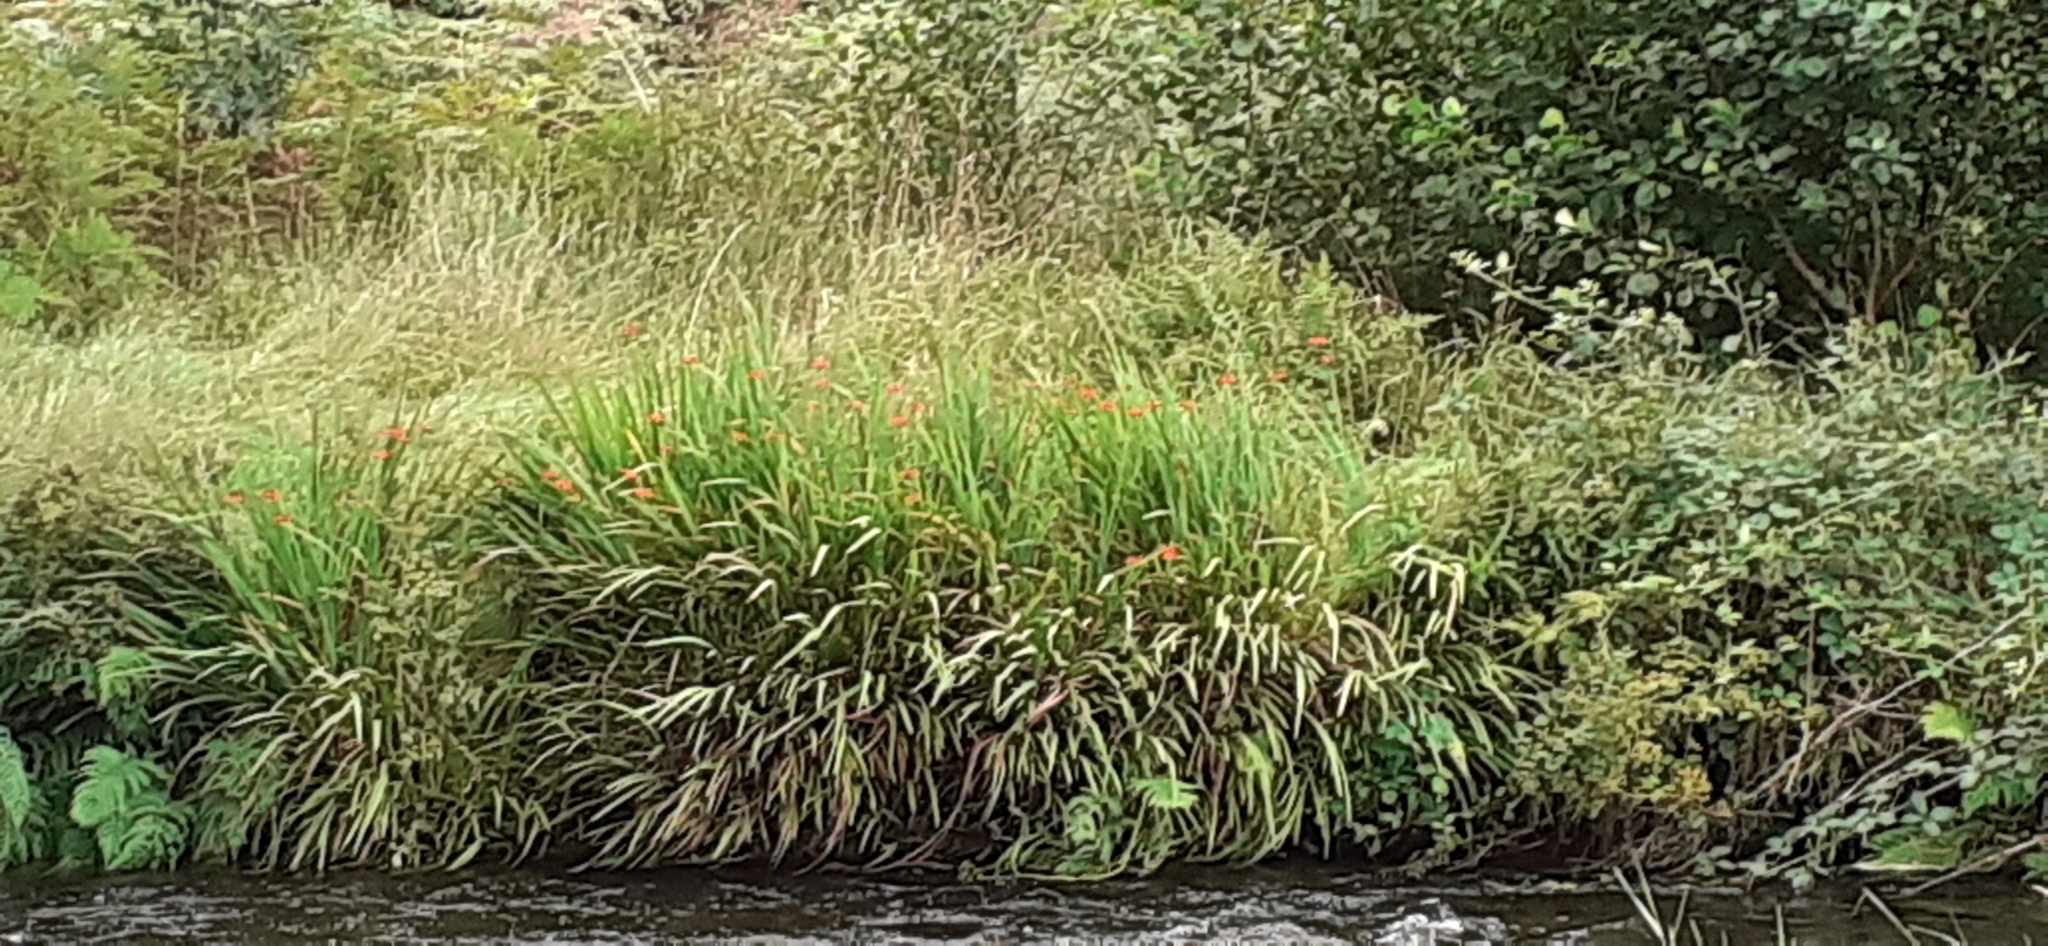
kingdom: Plantae
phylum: Tracheophyta
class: Liliopsida
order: Asparagales
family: Iridaceae
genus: Crocosmia
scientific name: Crocosmia crocosmiiflora
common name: Montbretia
